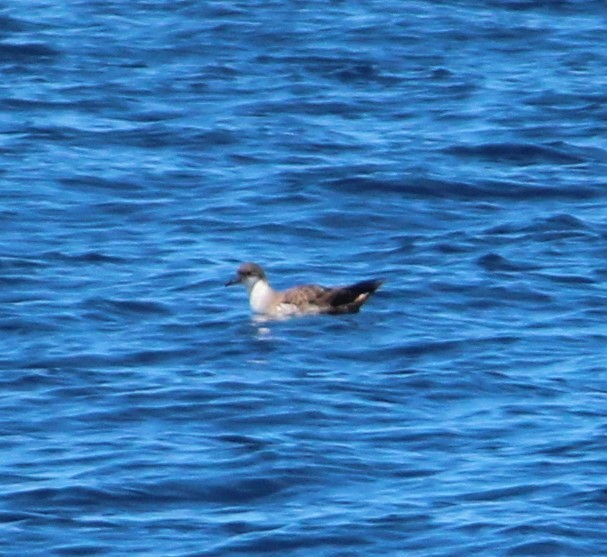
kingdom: Animalia
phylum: Chordata
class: Aves
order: Procellariiformes
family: Procellariidae
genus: Puffinus
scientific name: Puffinus gravis
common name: Great shearwater
